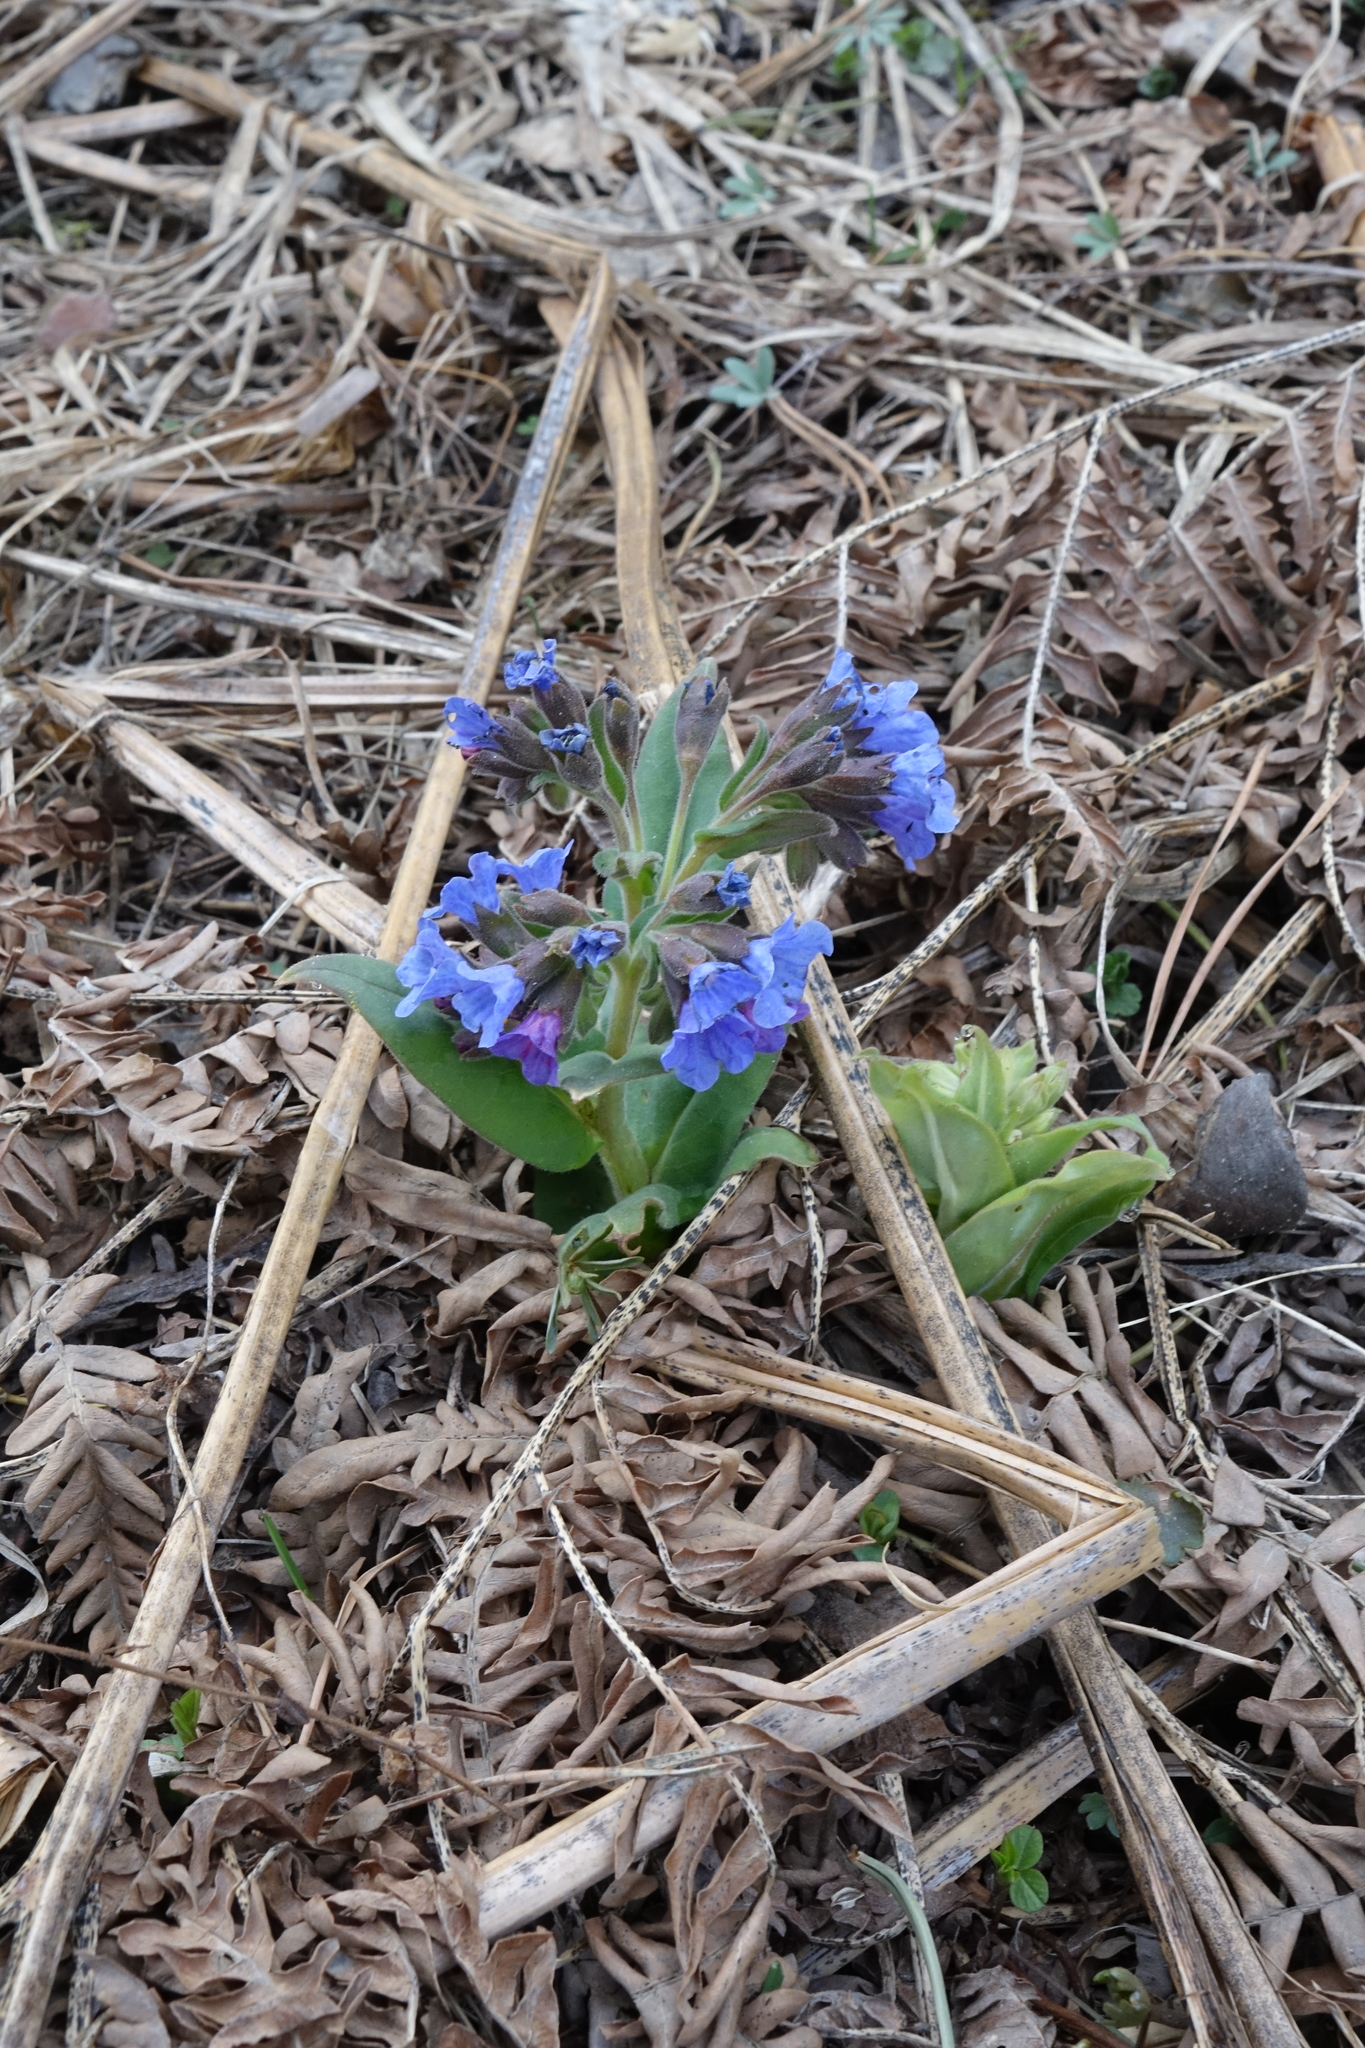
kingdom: Plantae
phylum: Tracheophyta
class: Magnoliopsida
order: Boraginales
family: Boraginaceae
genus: Pulmonaria
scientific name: Pulmonaria mollis
